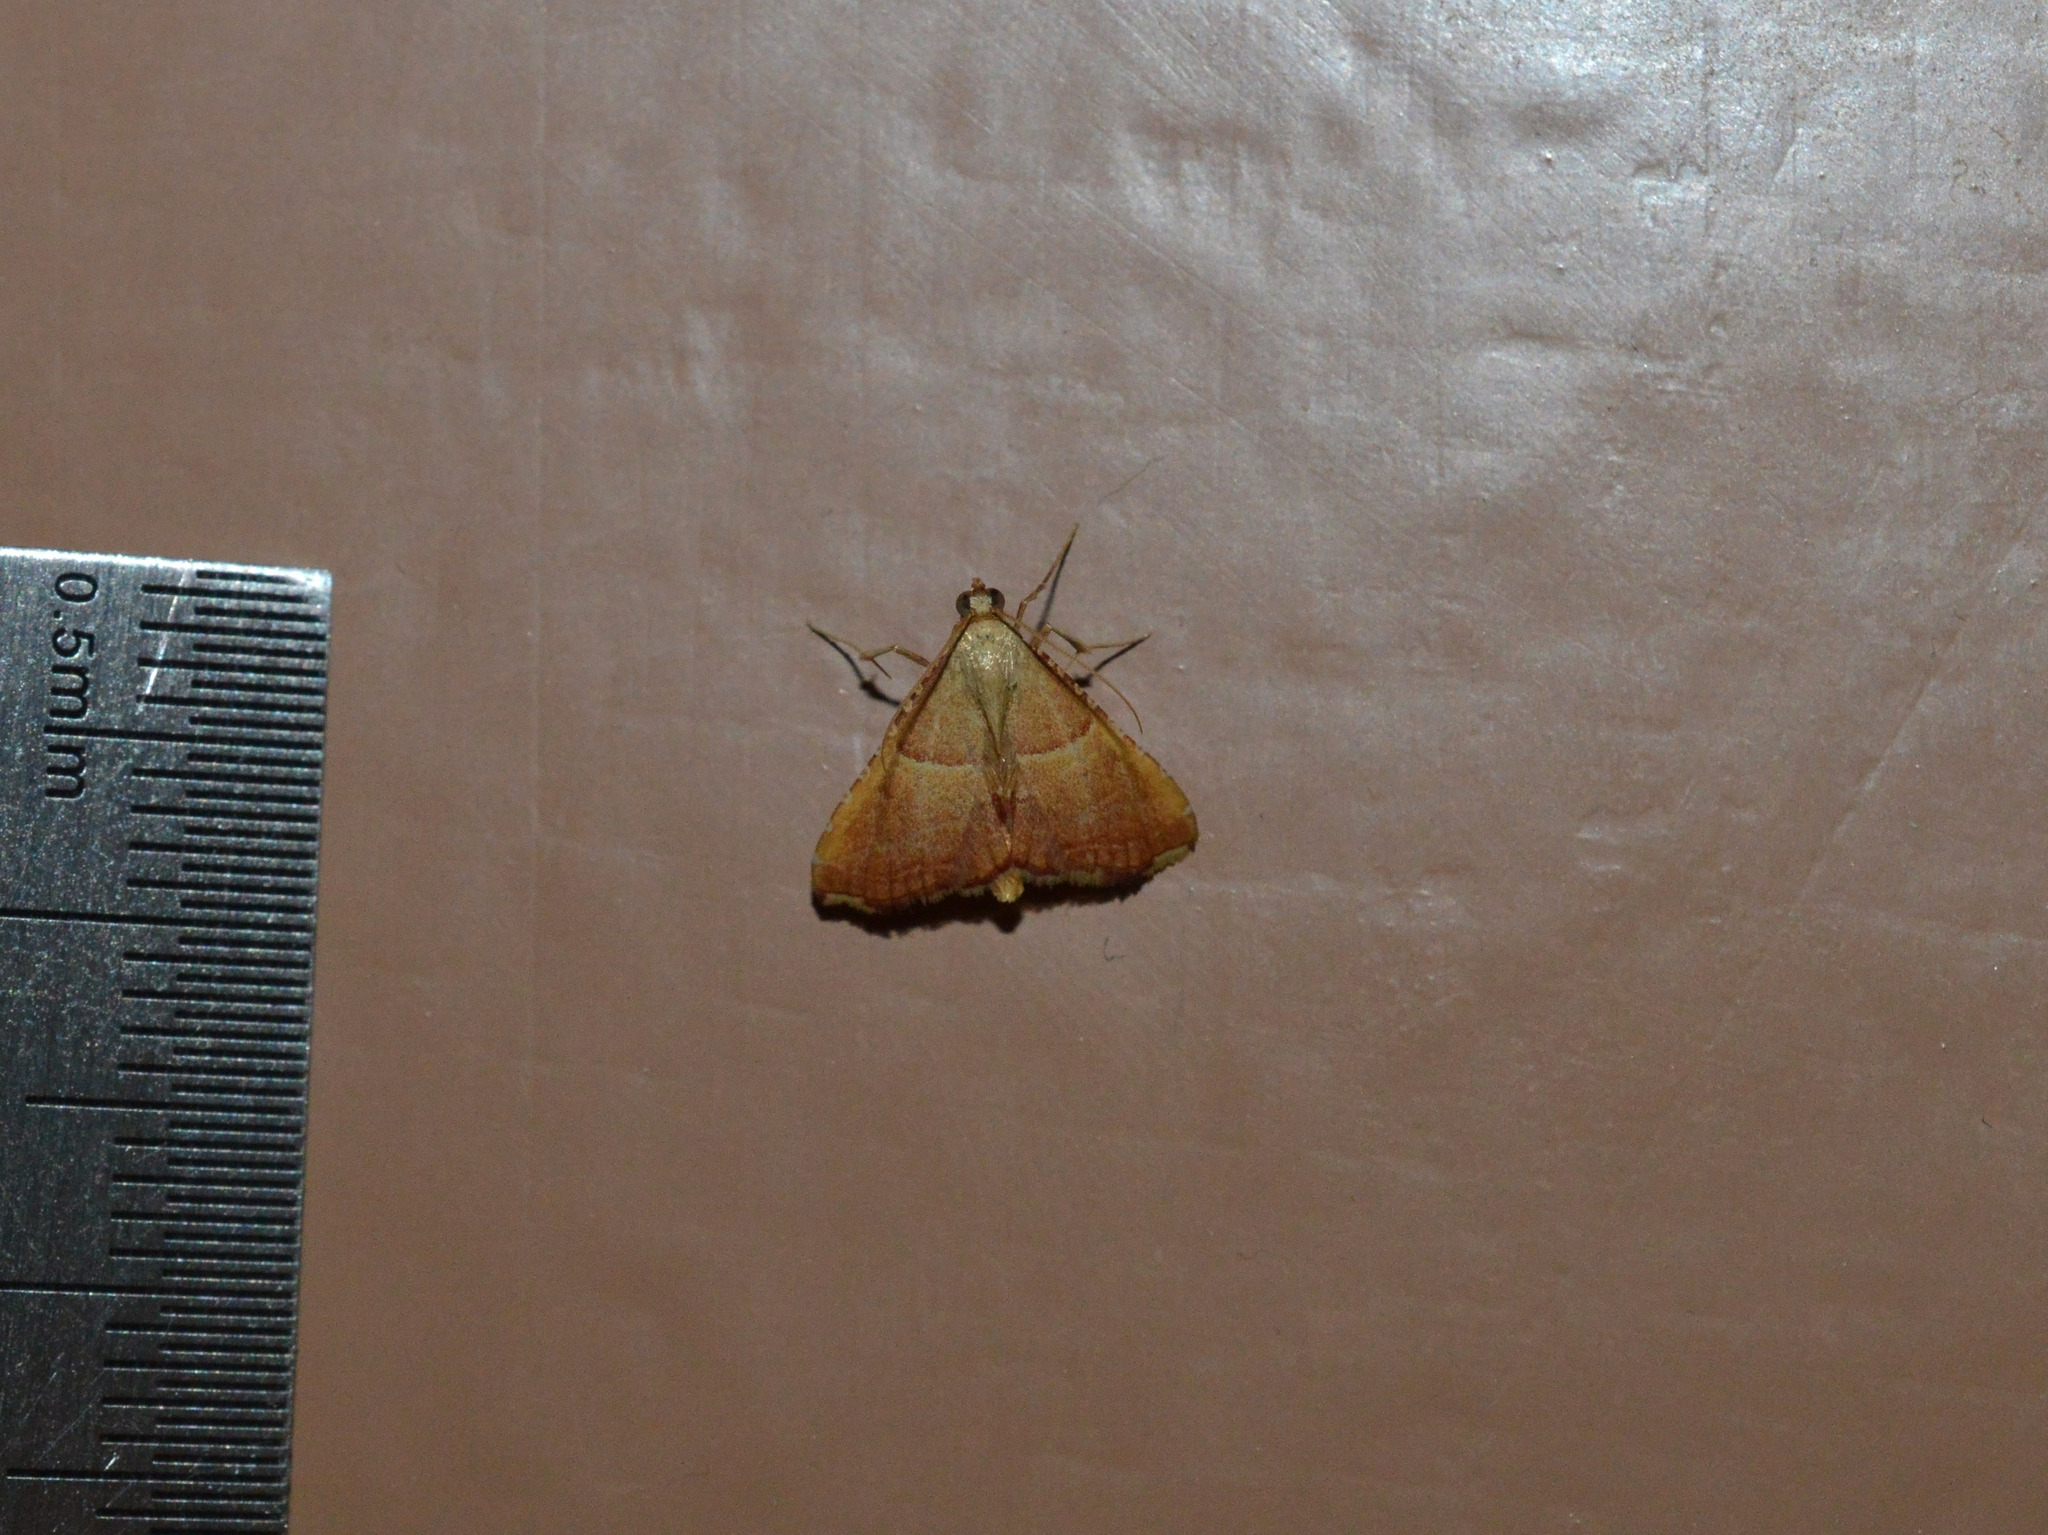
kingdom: Animalia
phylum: Arthropoda
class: Insecta
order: Lepidoptera
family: Pyralidae
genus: Endotricha
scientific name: Endotricha flammealis
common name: Rosy tabby
